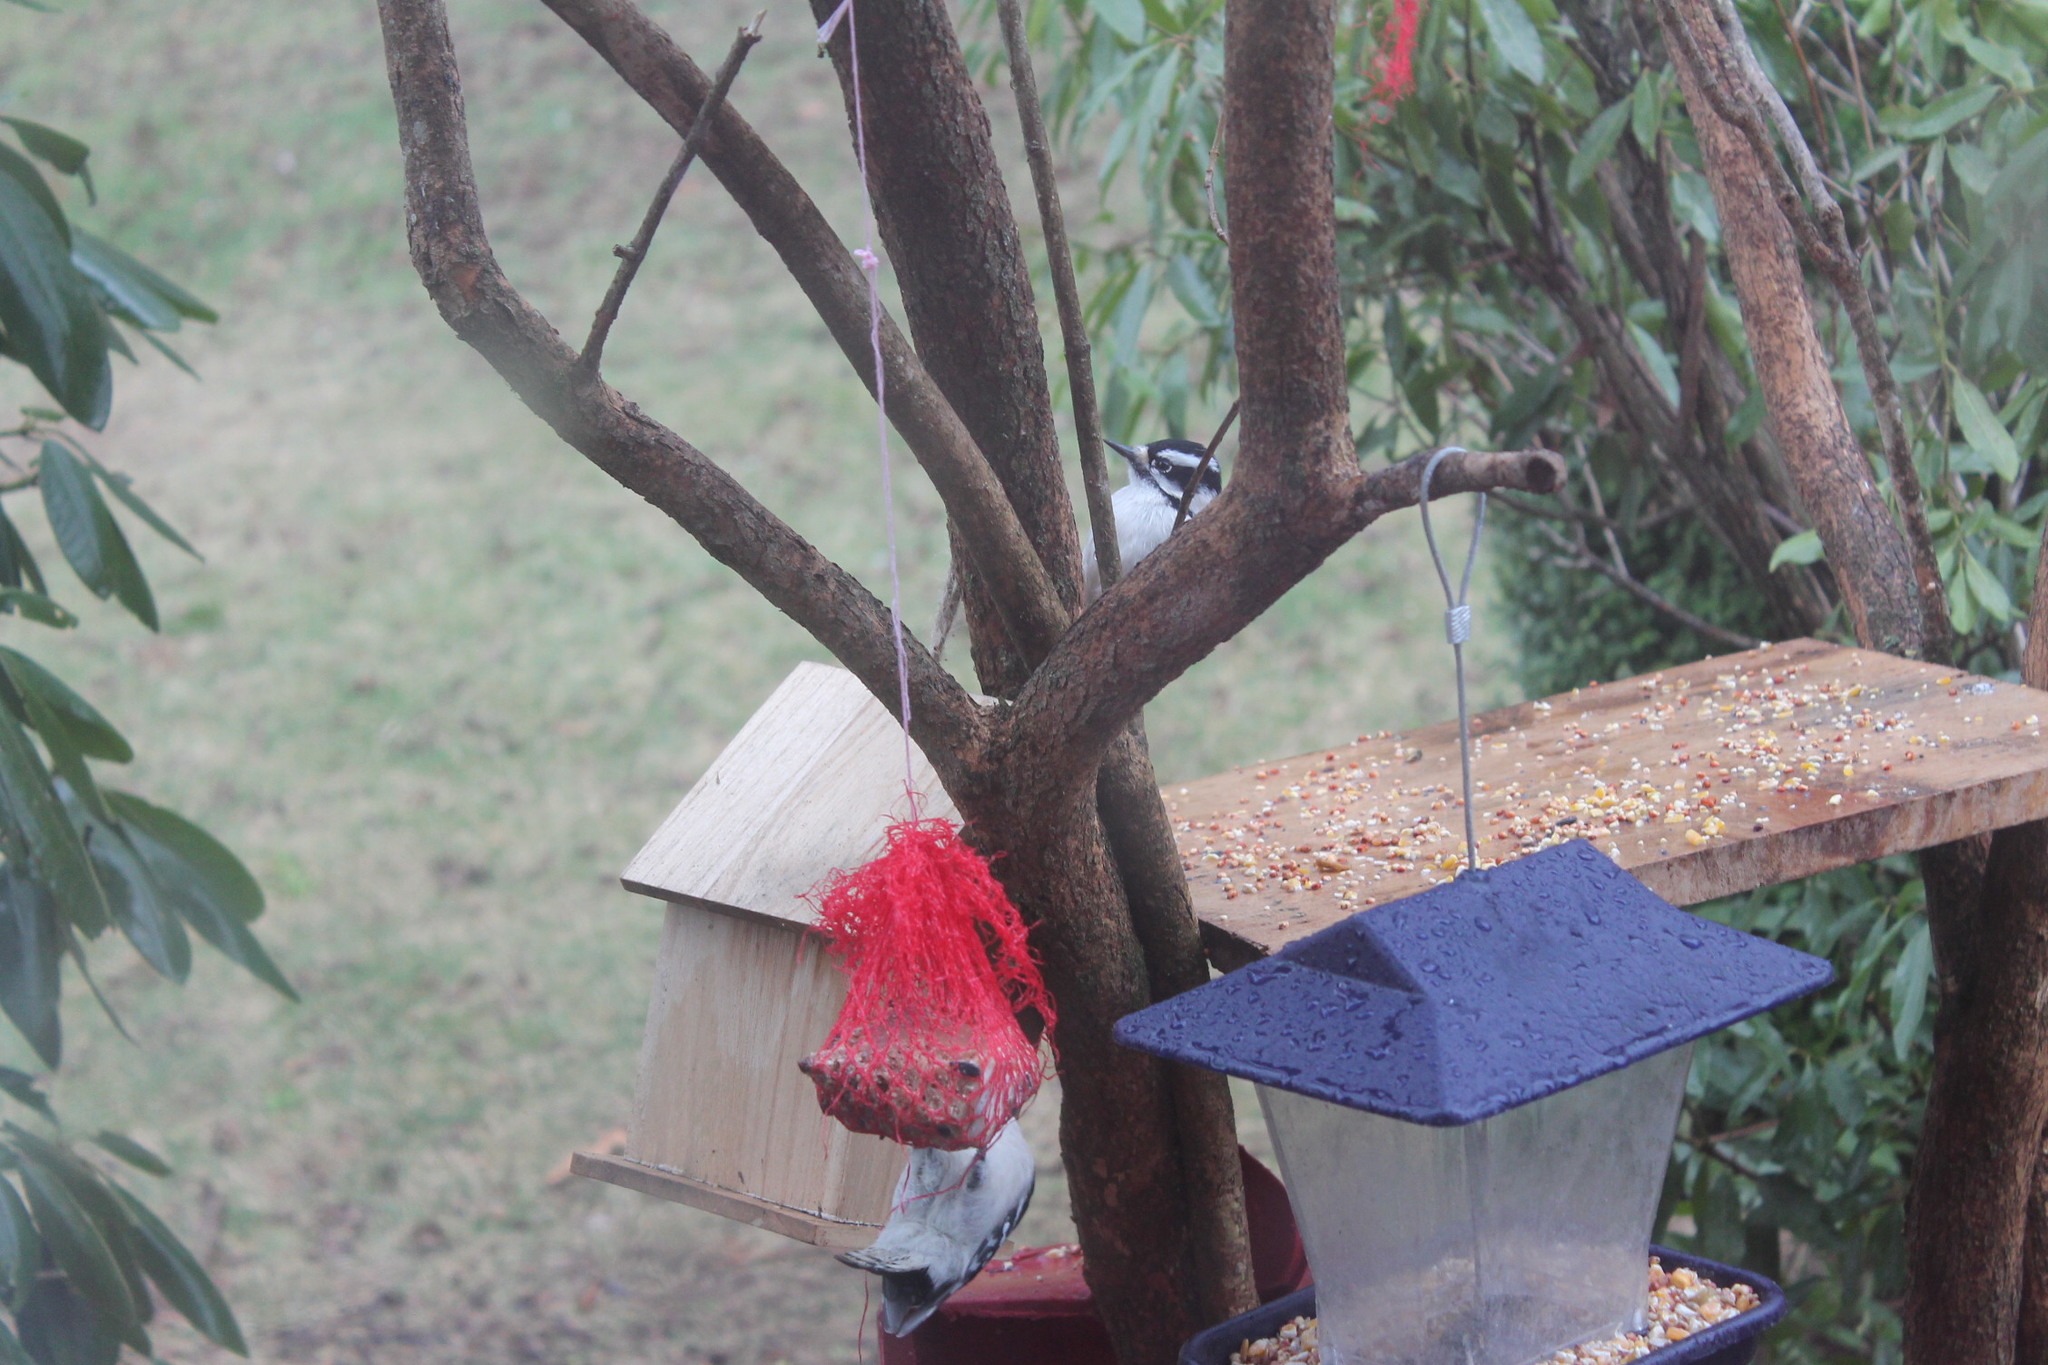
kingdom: Animalia
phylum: Chordata
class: Aves
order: Piciformes
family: Picidae
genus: Dryobates
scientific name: Dryobates pubescens
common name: Downy woodpecker
